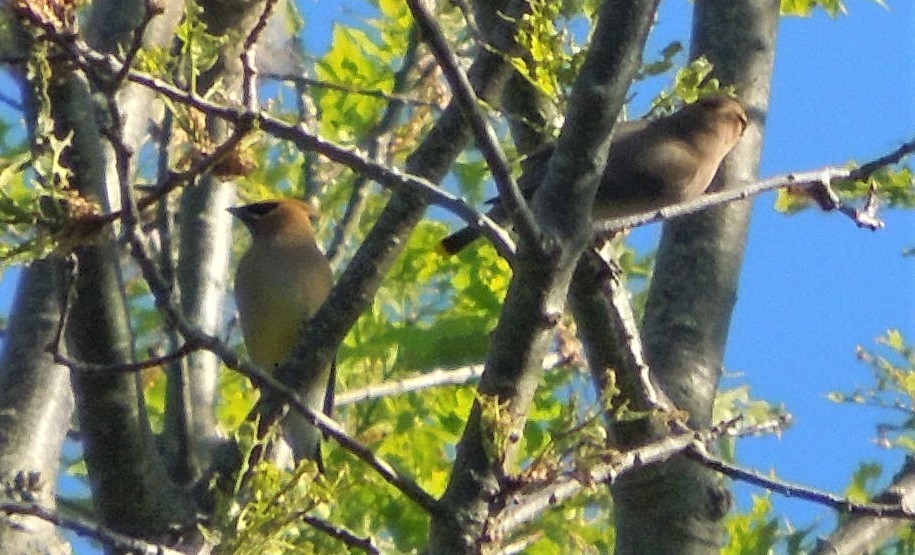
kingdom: Animalia
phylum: Chordata
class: Aves
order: Passeriformes
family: Bombycillidae
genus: Bombycilla
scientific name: Bombycilla cedrorum
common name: Cedar waxwing
